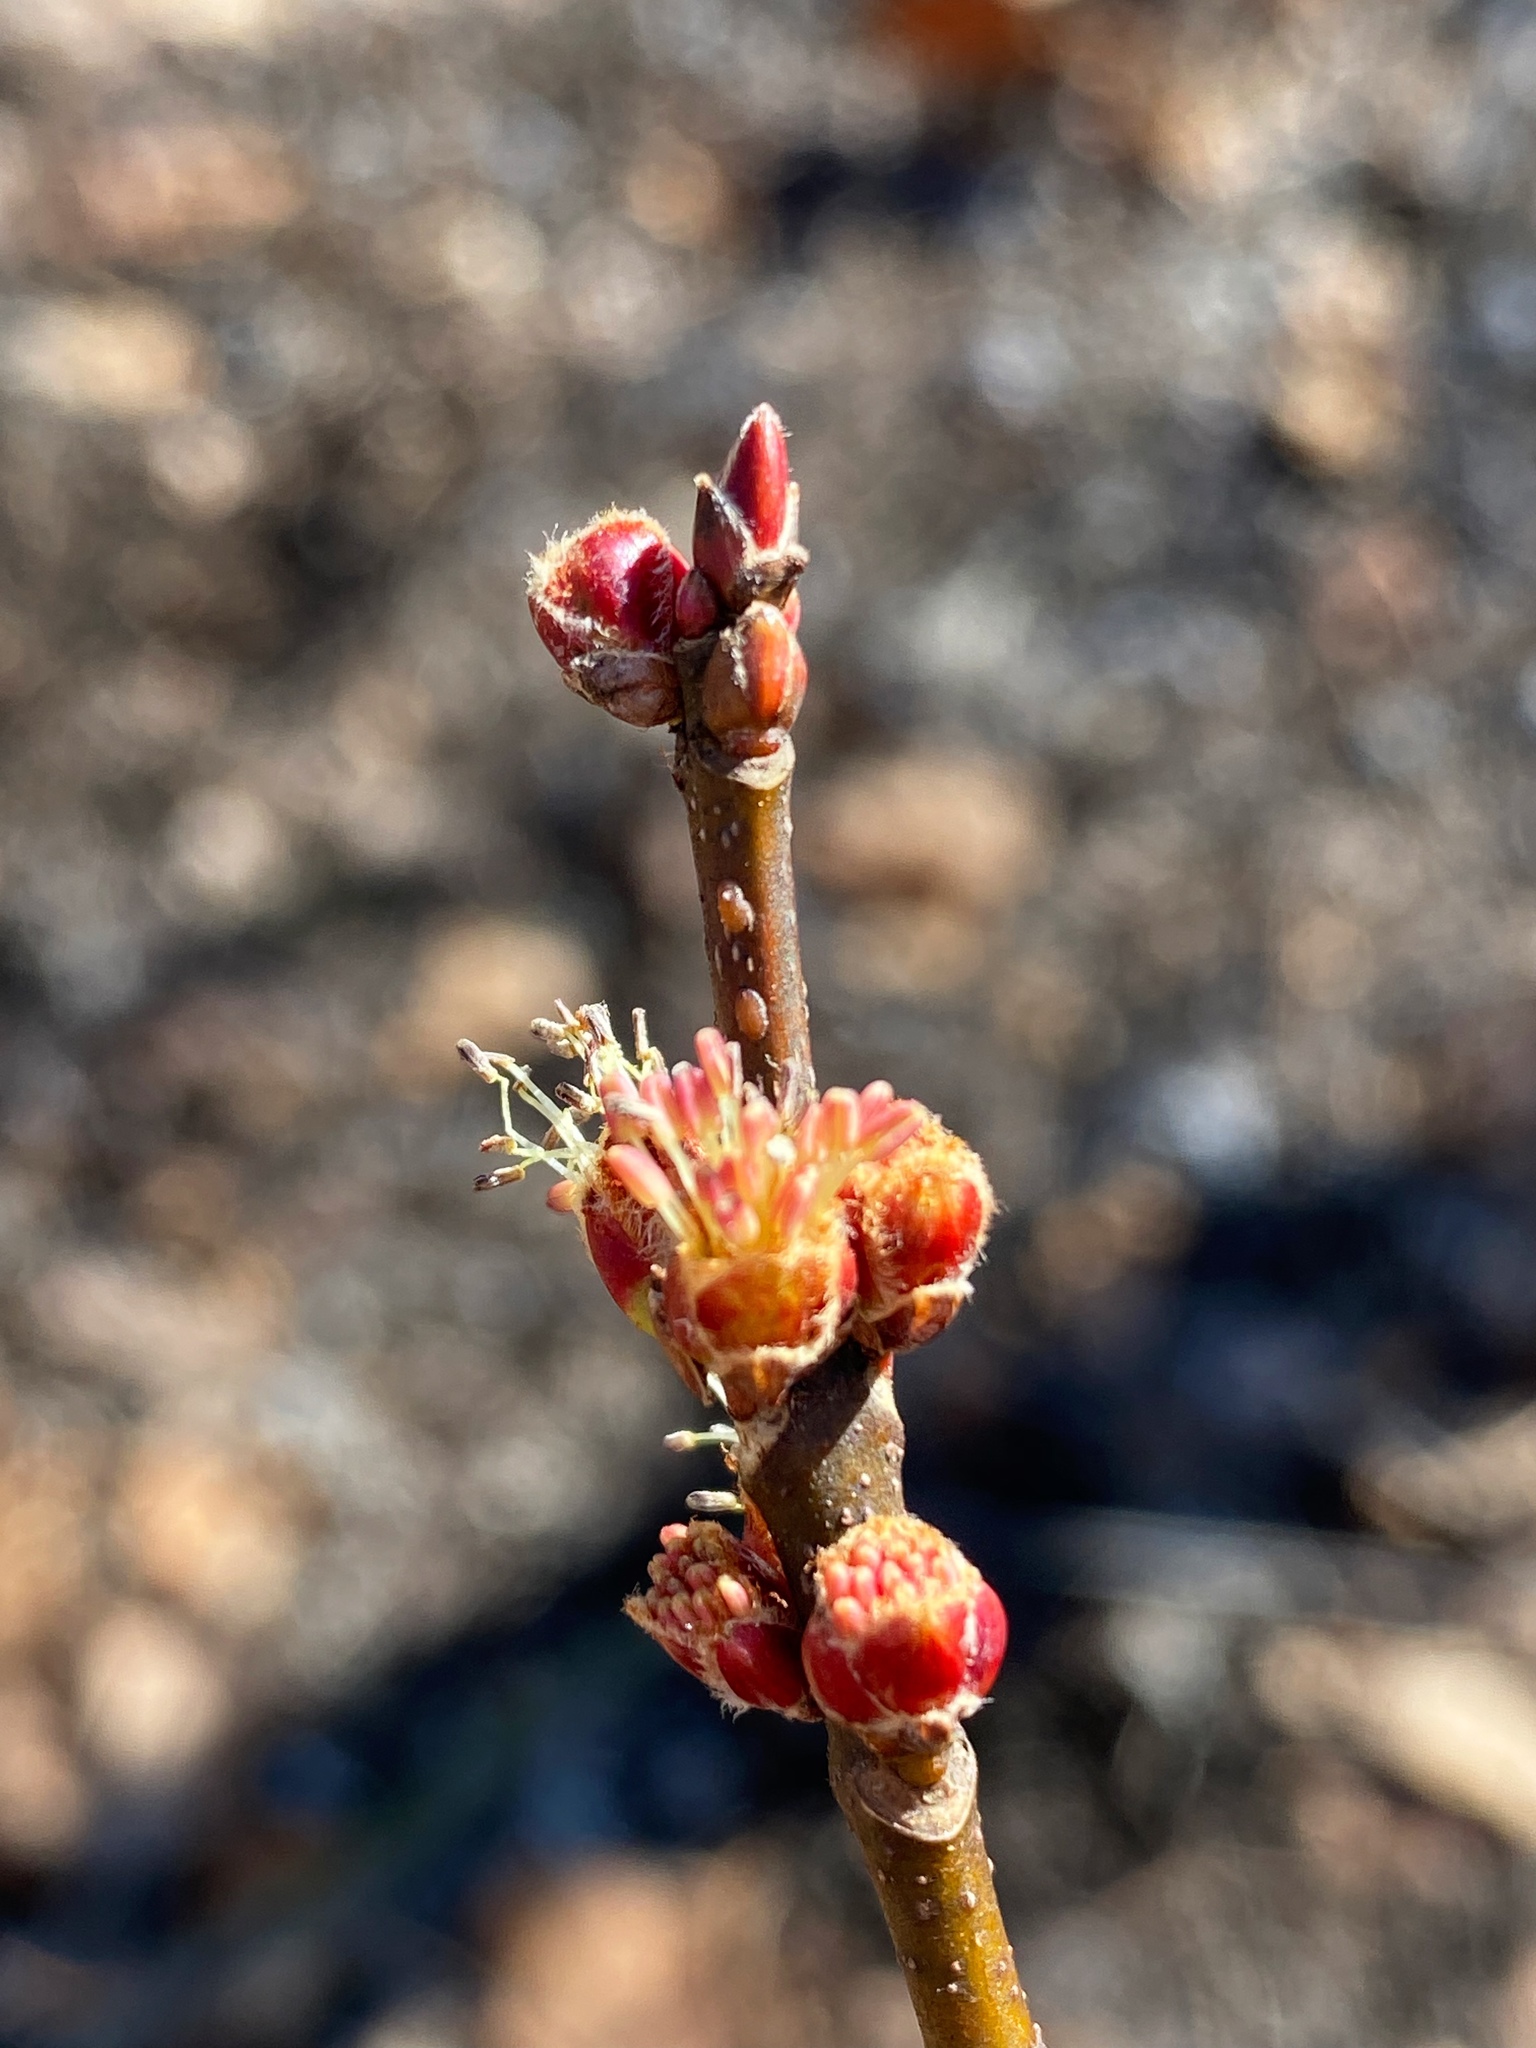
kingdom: Plantae
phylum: Tracheophyta
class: Magnoliopsida
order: Sapindales
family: Sapindaceae
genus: Acer
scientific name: Acer saccharinum
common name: Silver maple
